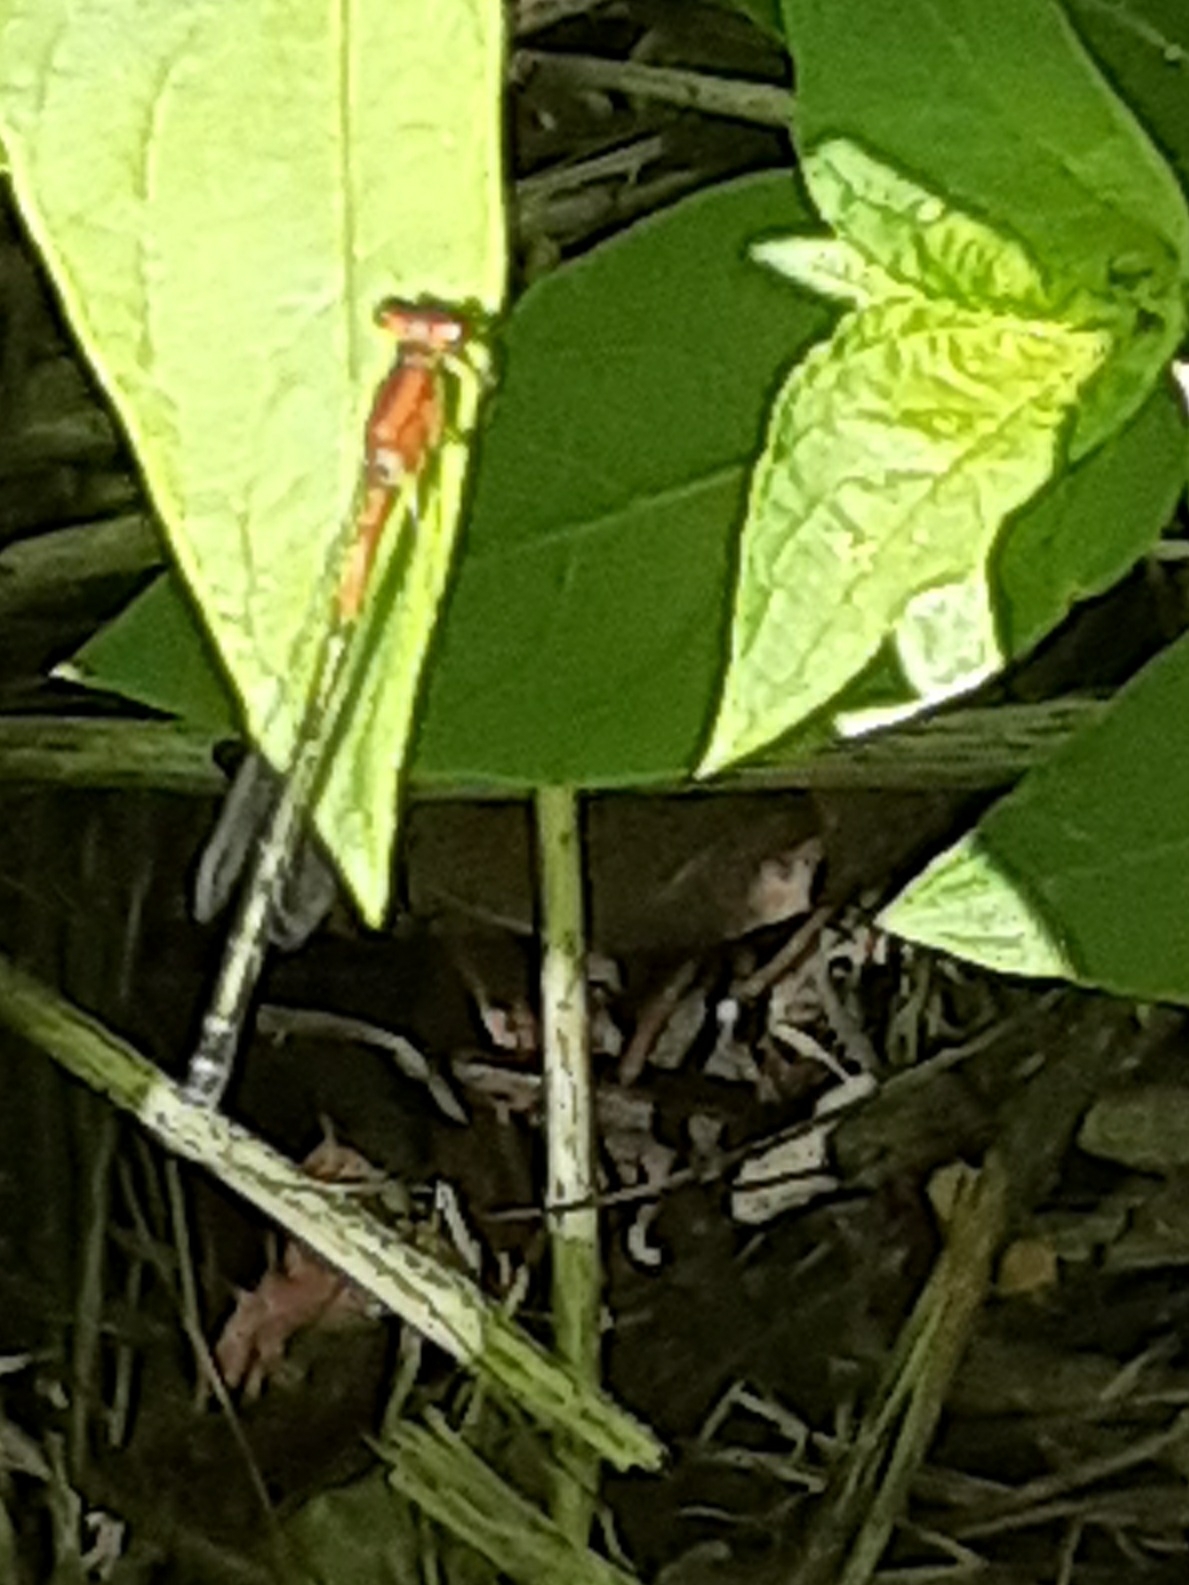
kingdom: Animalia
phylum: Arthropoda
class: Insecta
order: Odonata
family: Coenagrionidae
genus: Ischnura
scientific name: Ischnura verticalis
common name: Eastern forktail
